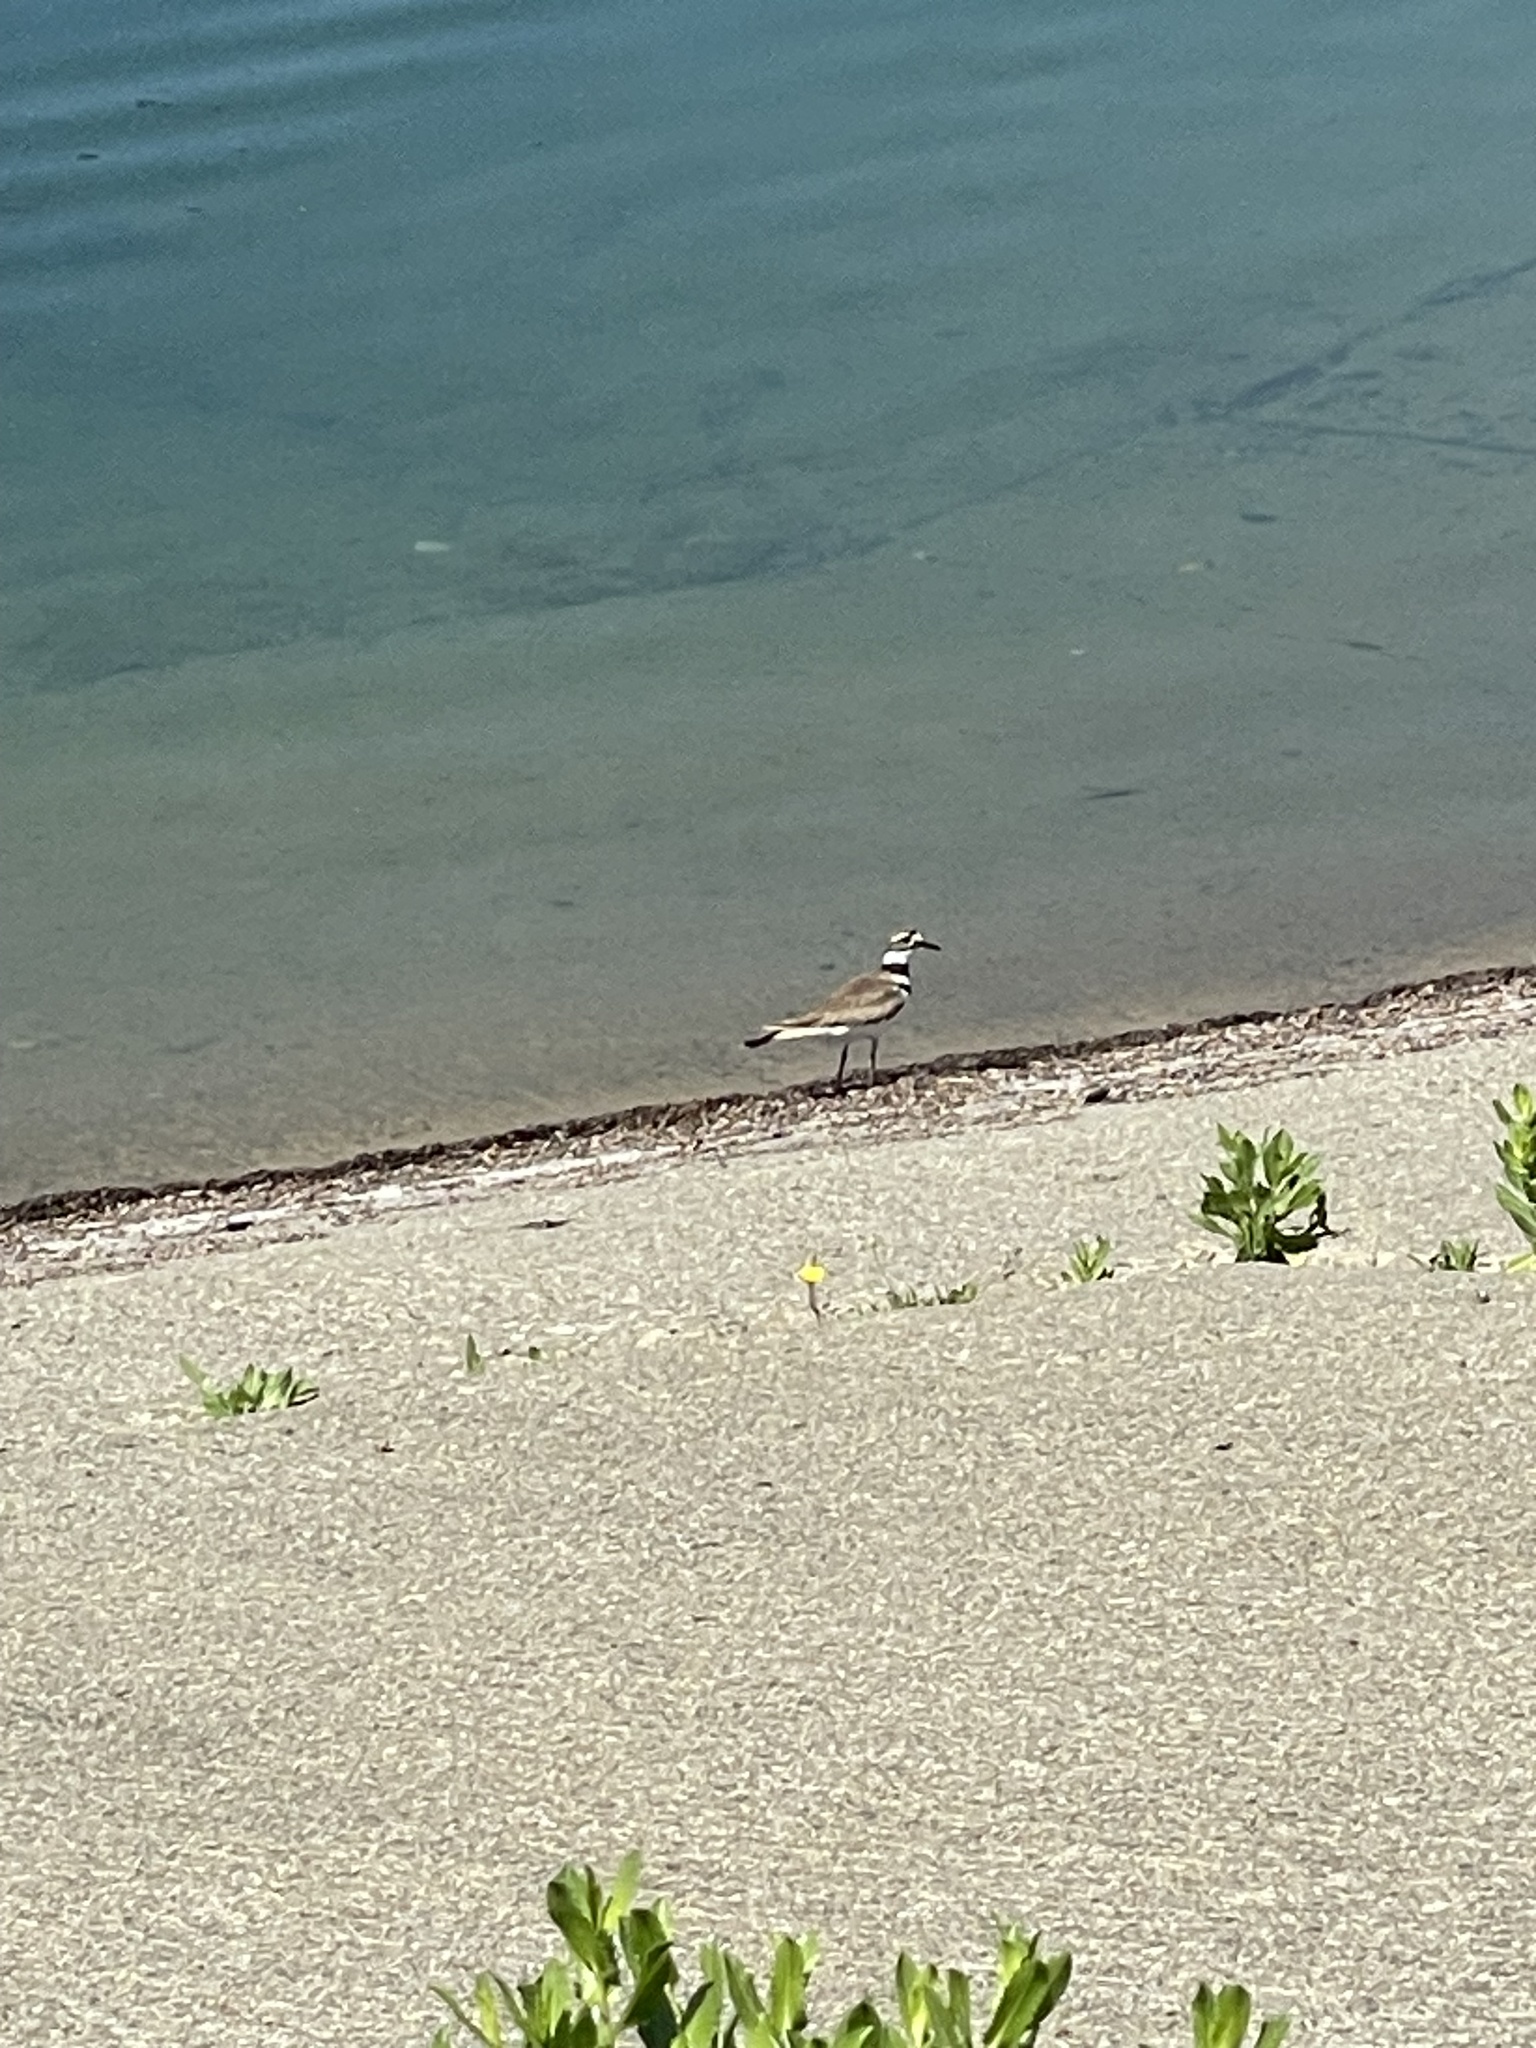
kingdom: Animalia
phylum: Chordata
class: Aves
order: Charadriiformes
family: Charadriidae
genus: Charadrius
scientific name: Charadrius vociferus
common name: Killdeer
